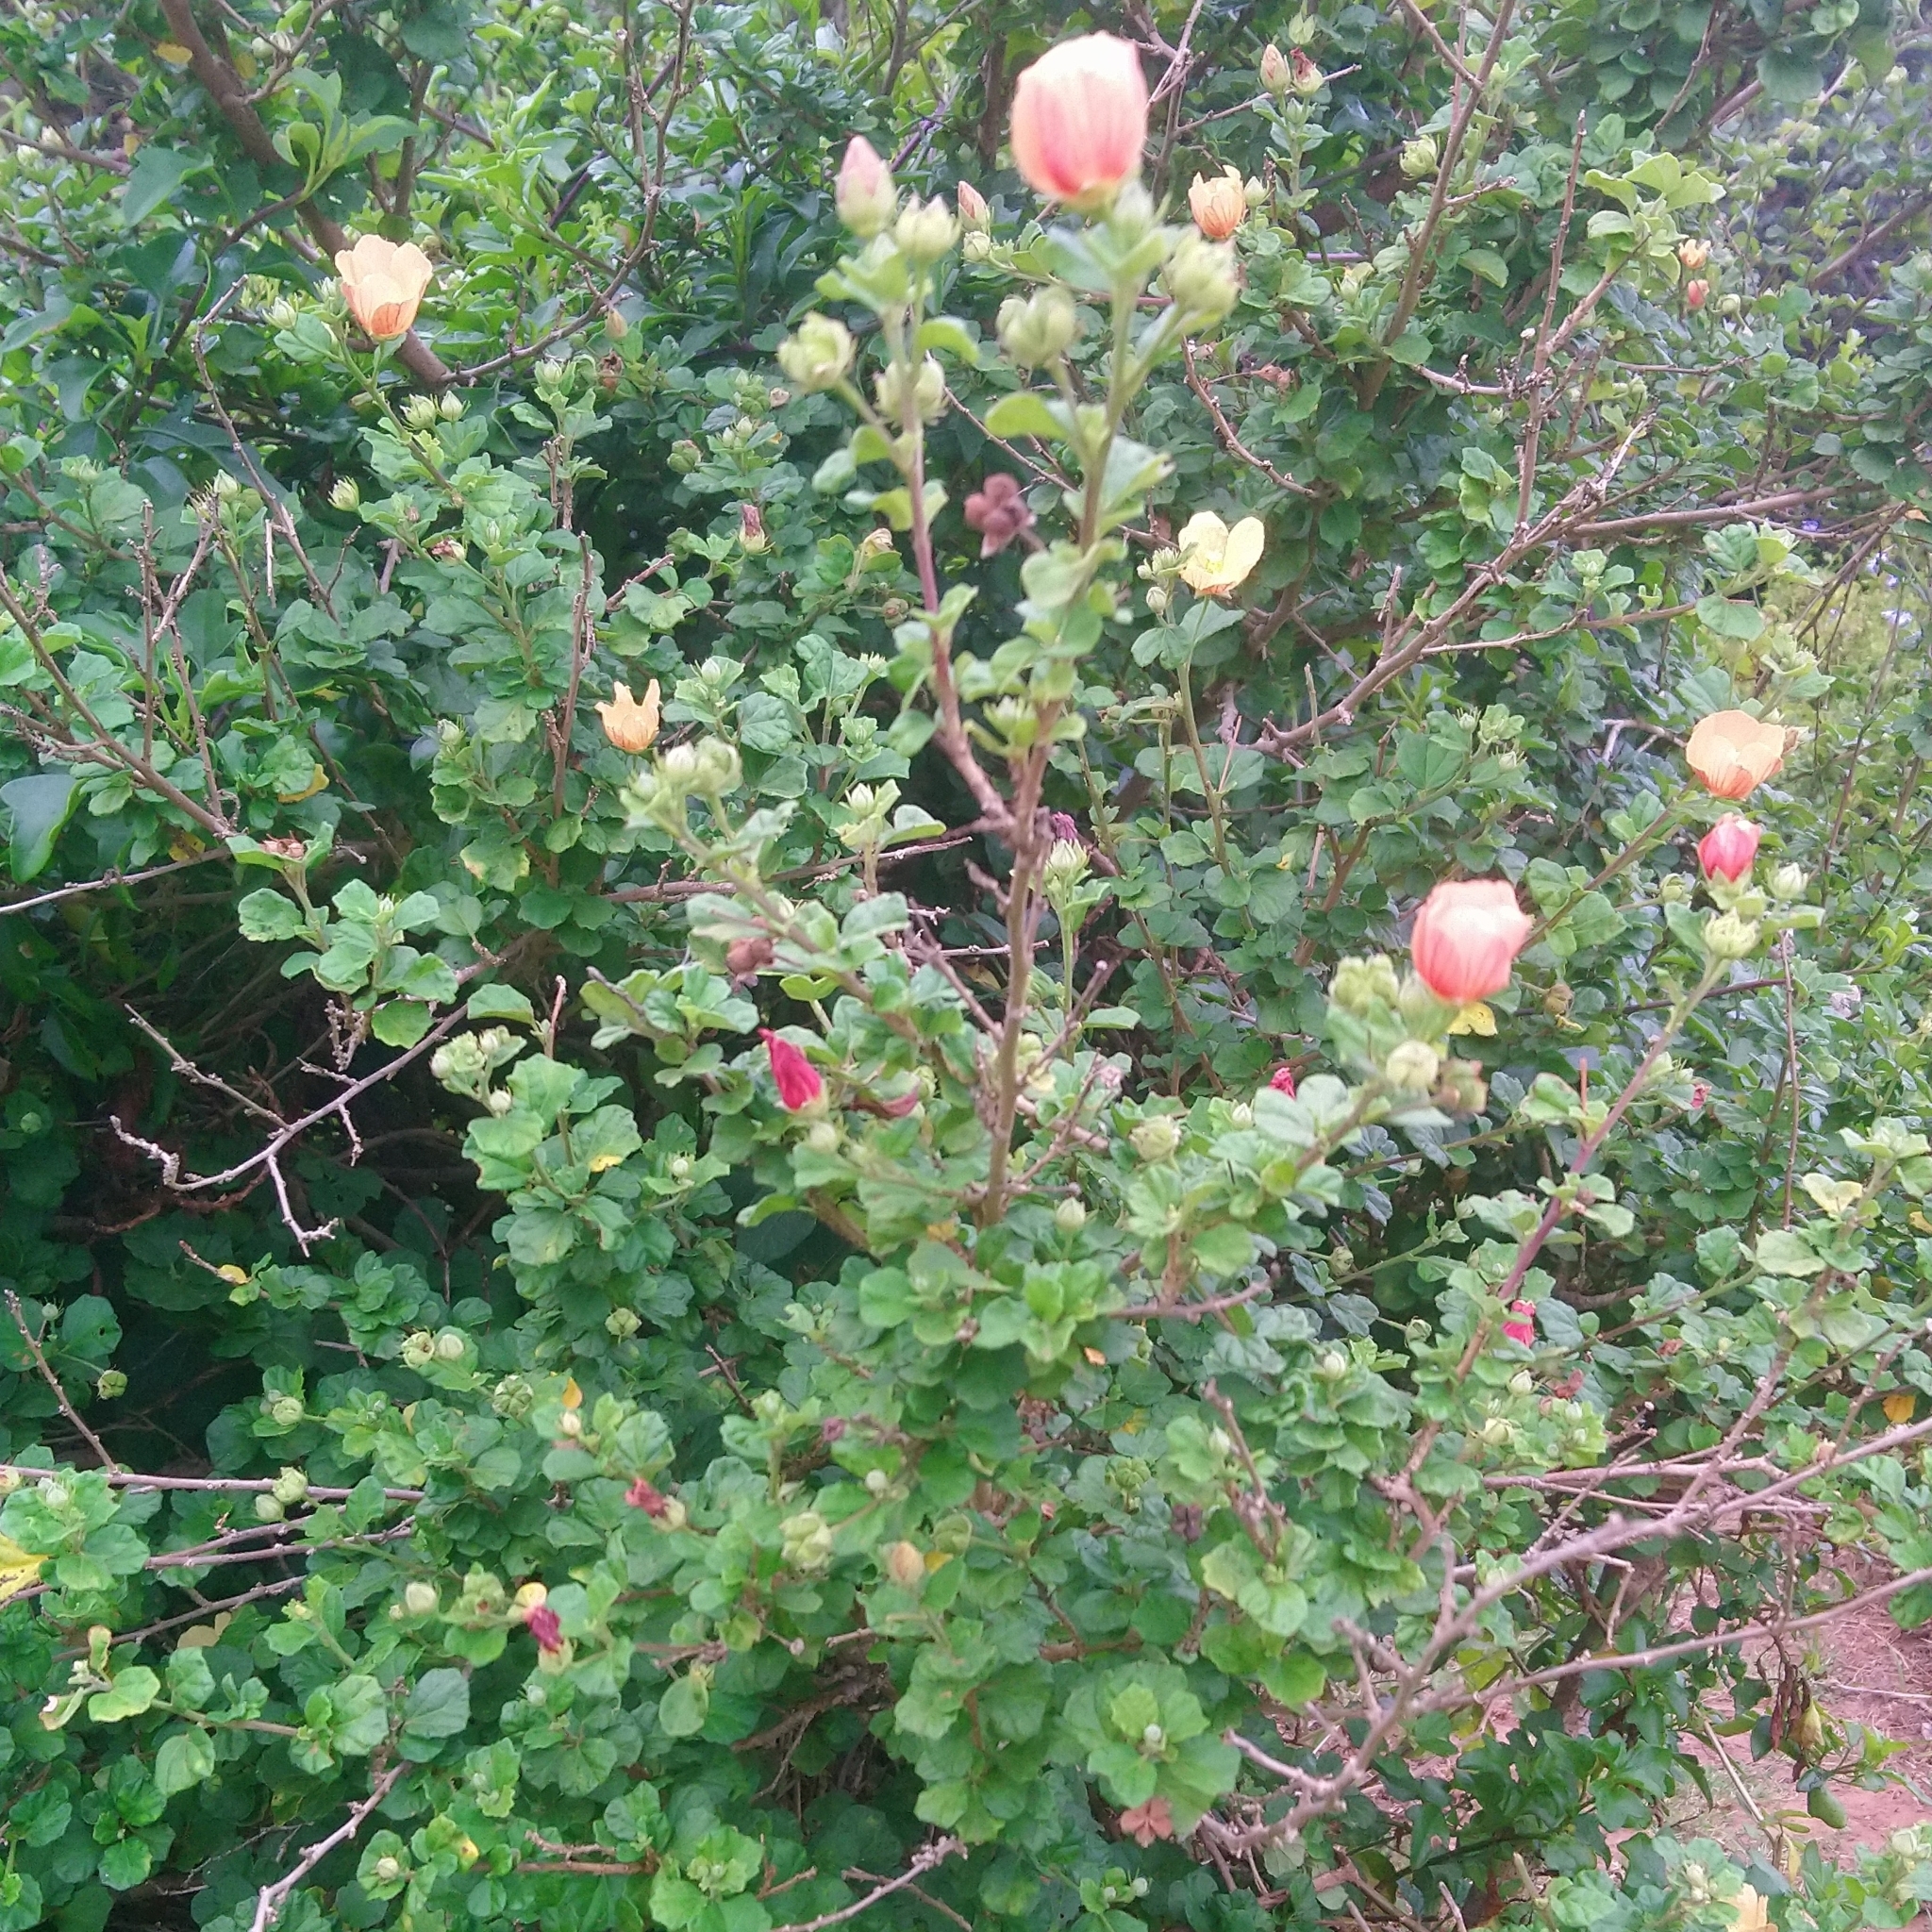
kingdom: Plantae
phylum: Tracheophyta
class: Magnoliopsida
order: Malvales
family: Malvaceae
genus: Pavonia
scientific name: Pavonia praemorsa
